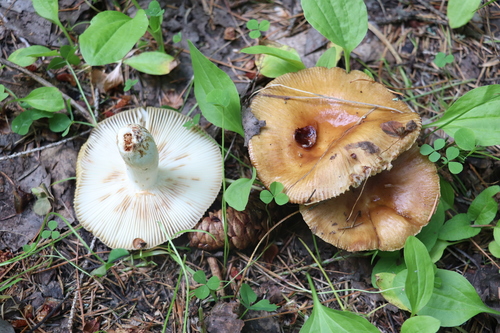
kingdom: Fungi
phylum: Basidiomycota
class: Agaricomycetes
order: Russulales
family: Russulaceae
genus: Russula
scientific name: Russula foetens
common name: Foetid russula
